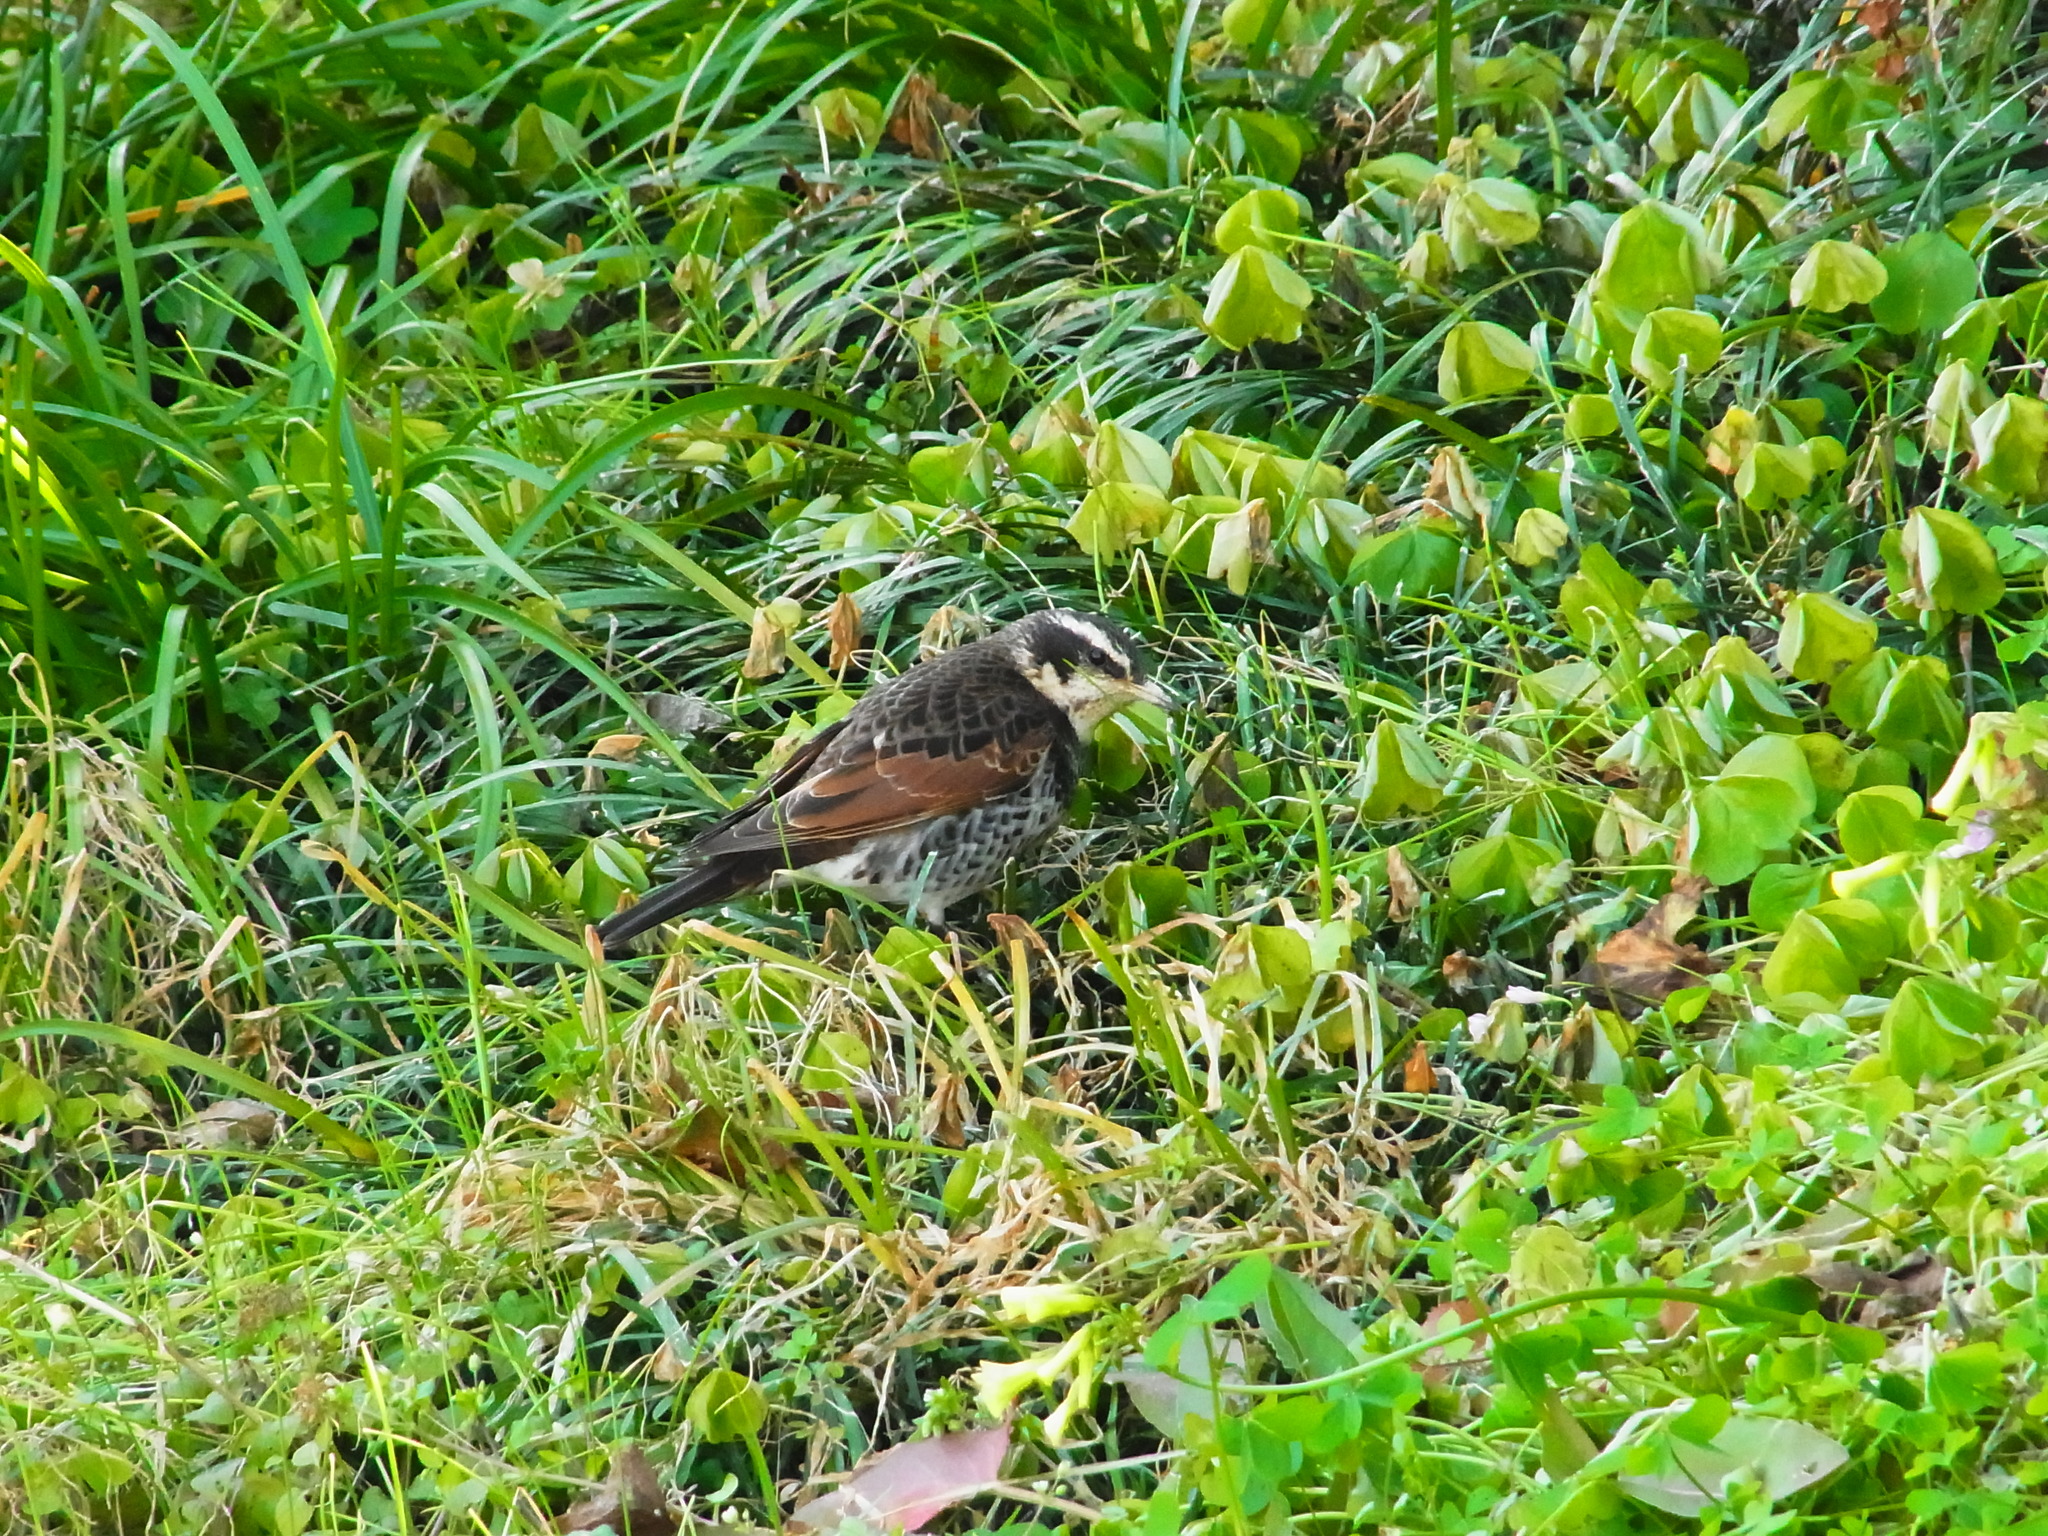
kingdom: Animalia
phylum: Chordata
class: Aves
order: Passeriformes
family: Turdidae
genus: Turdus
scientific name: Turdus eunomus
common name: Dusky thrush
